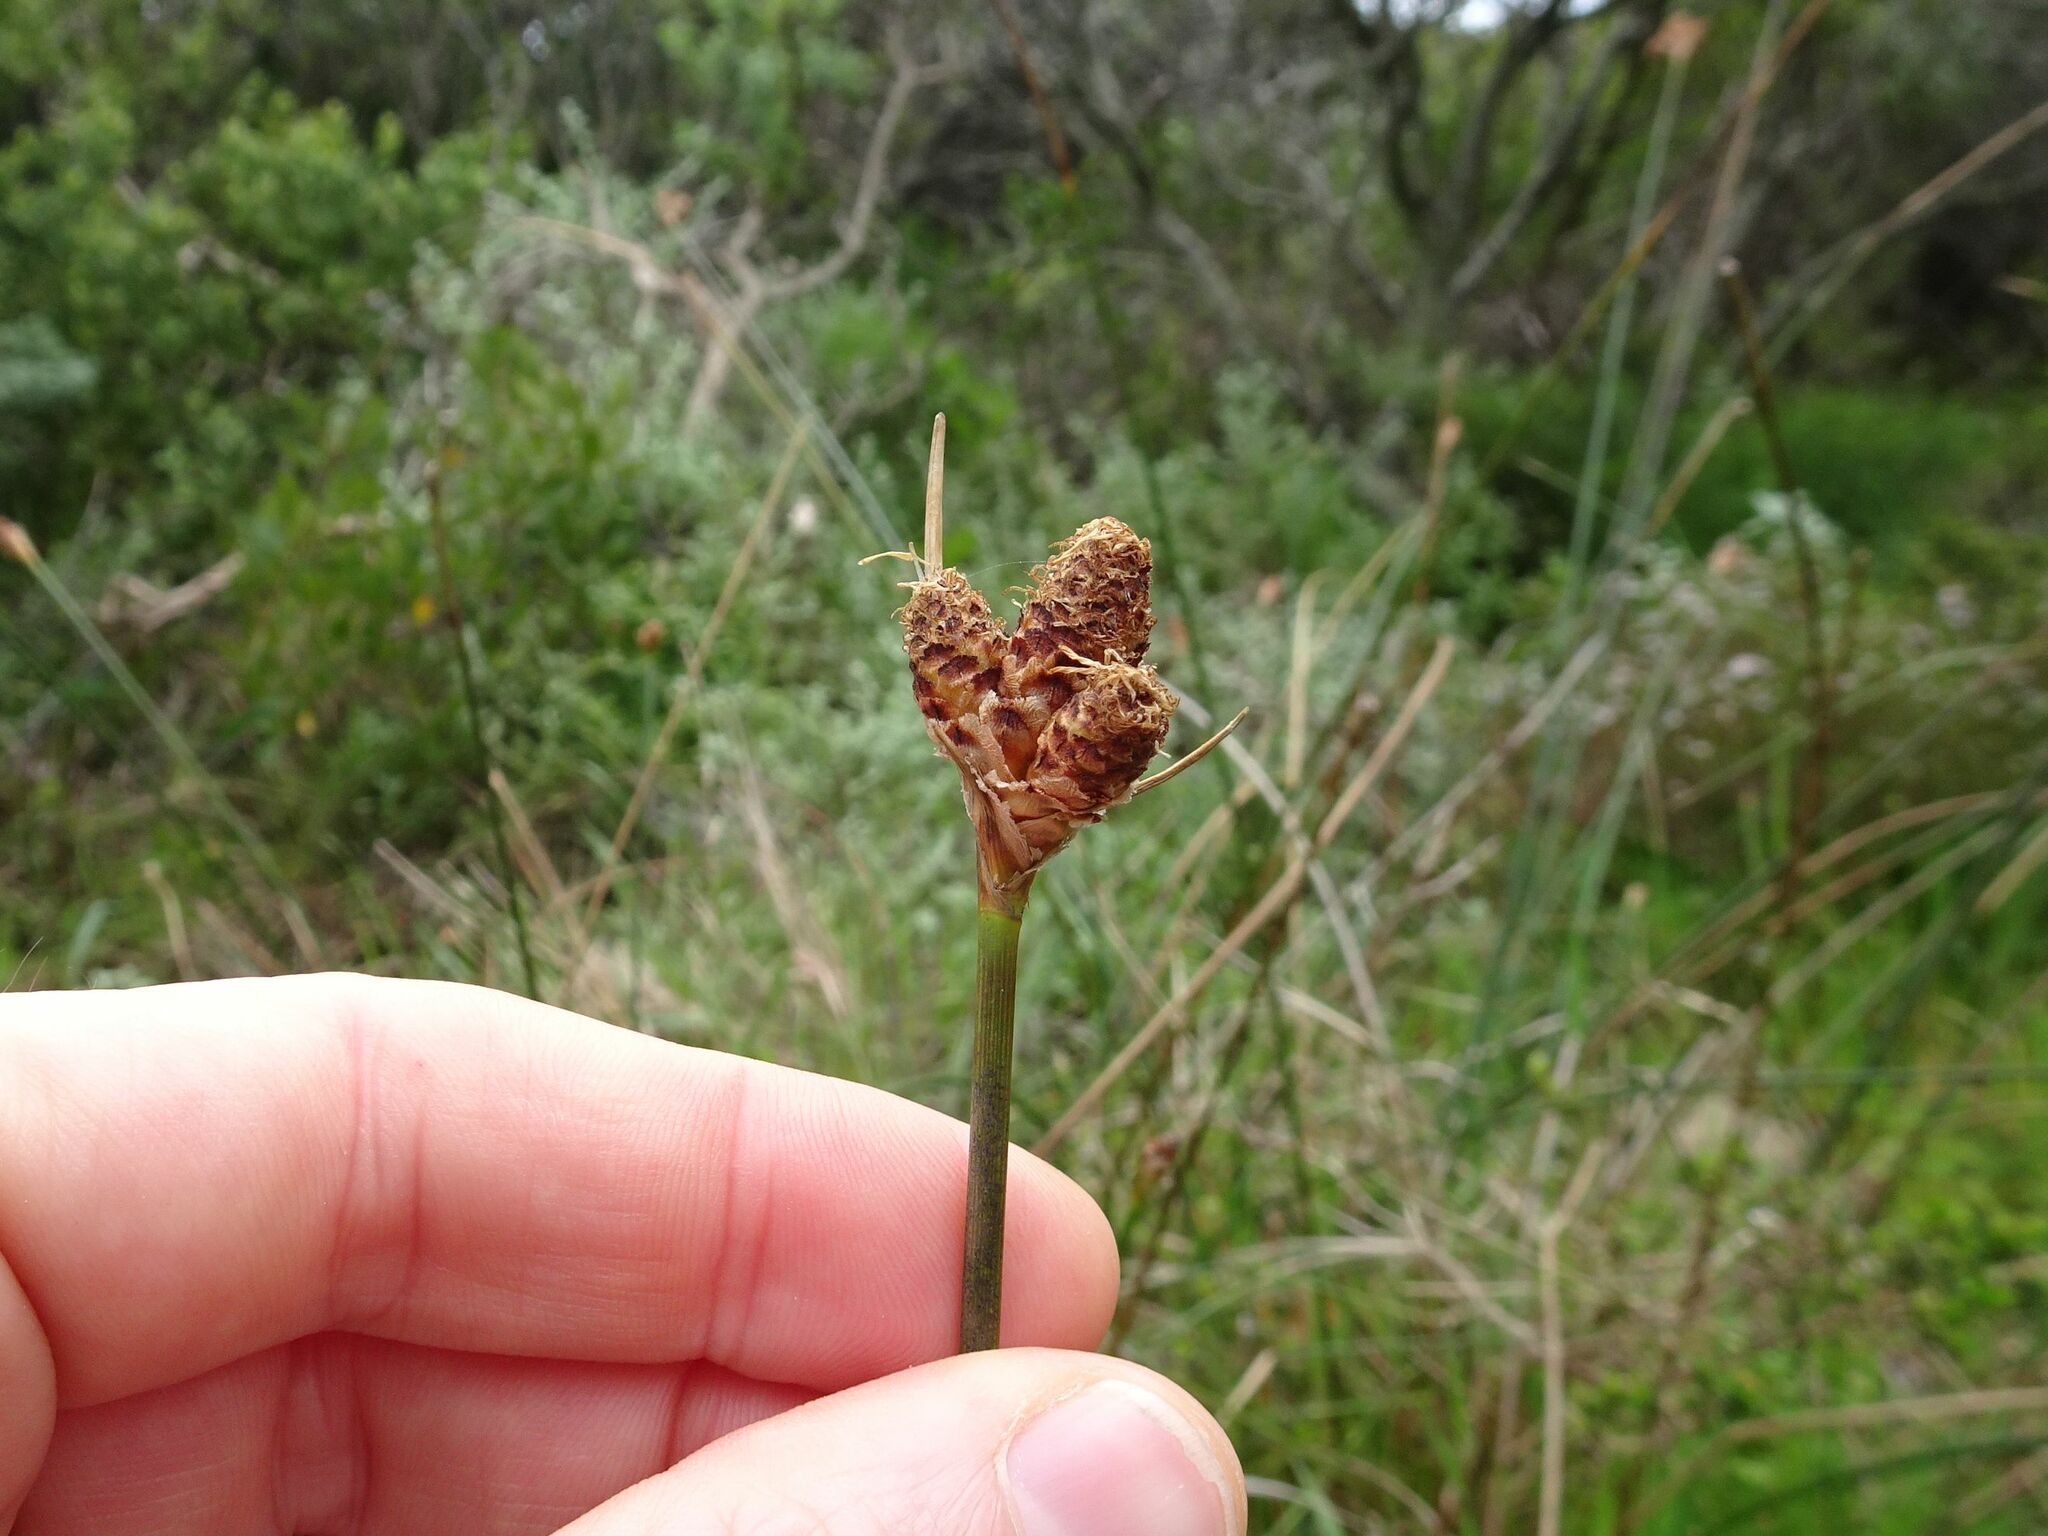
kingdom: Plantae
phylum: Tracheophyta
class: Liliopsida
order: Poales
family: Cyperaceae
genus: Hellmuthia
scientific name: Hellmuthia membranacea
